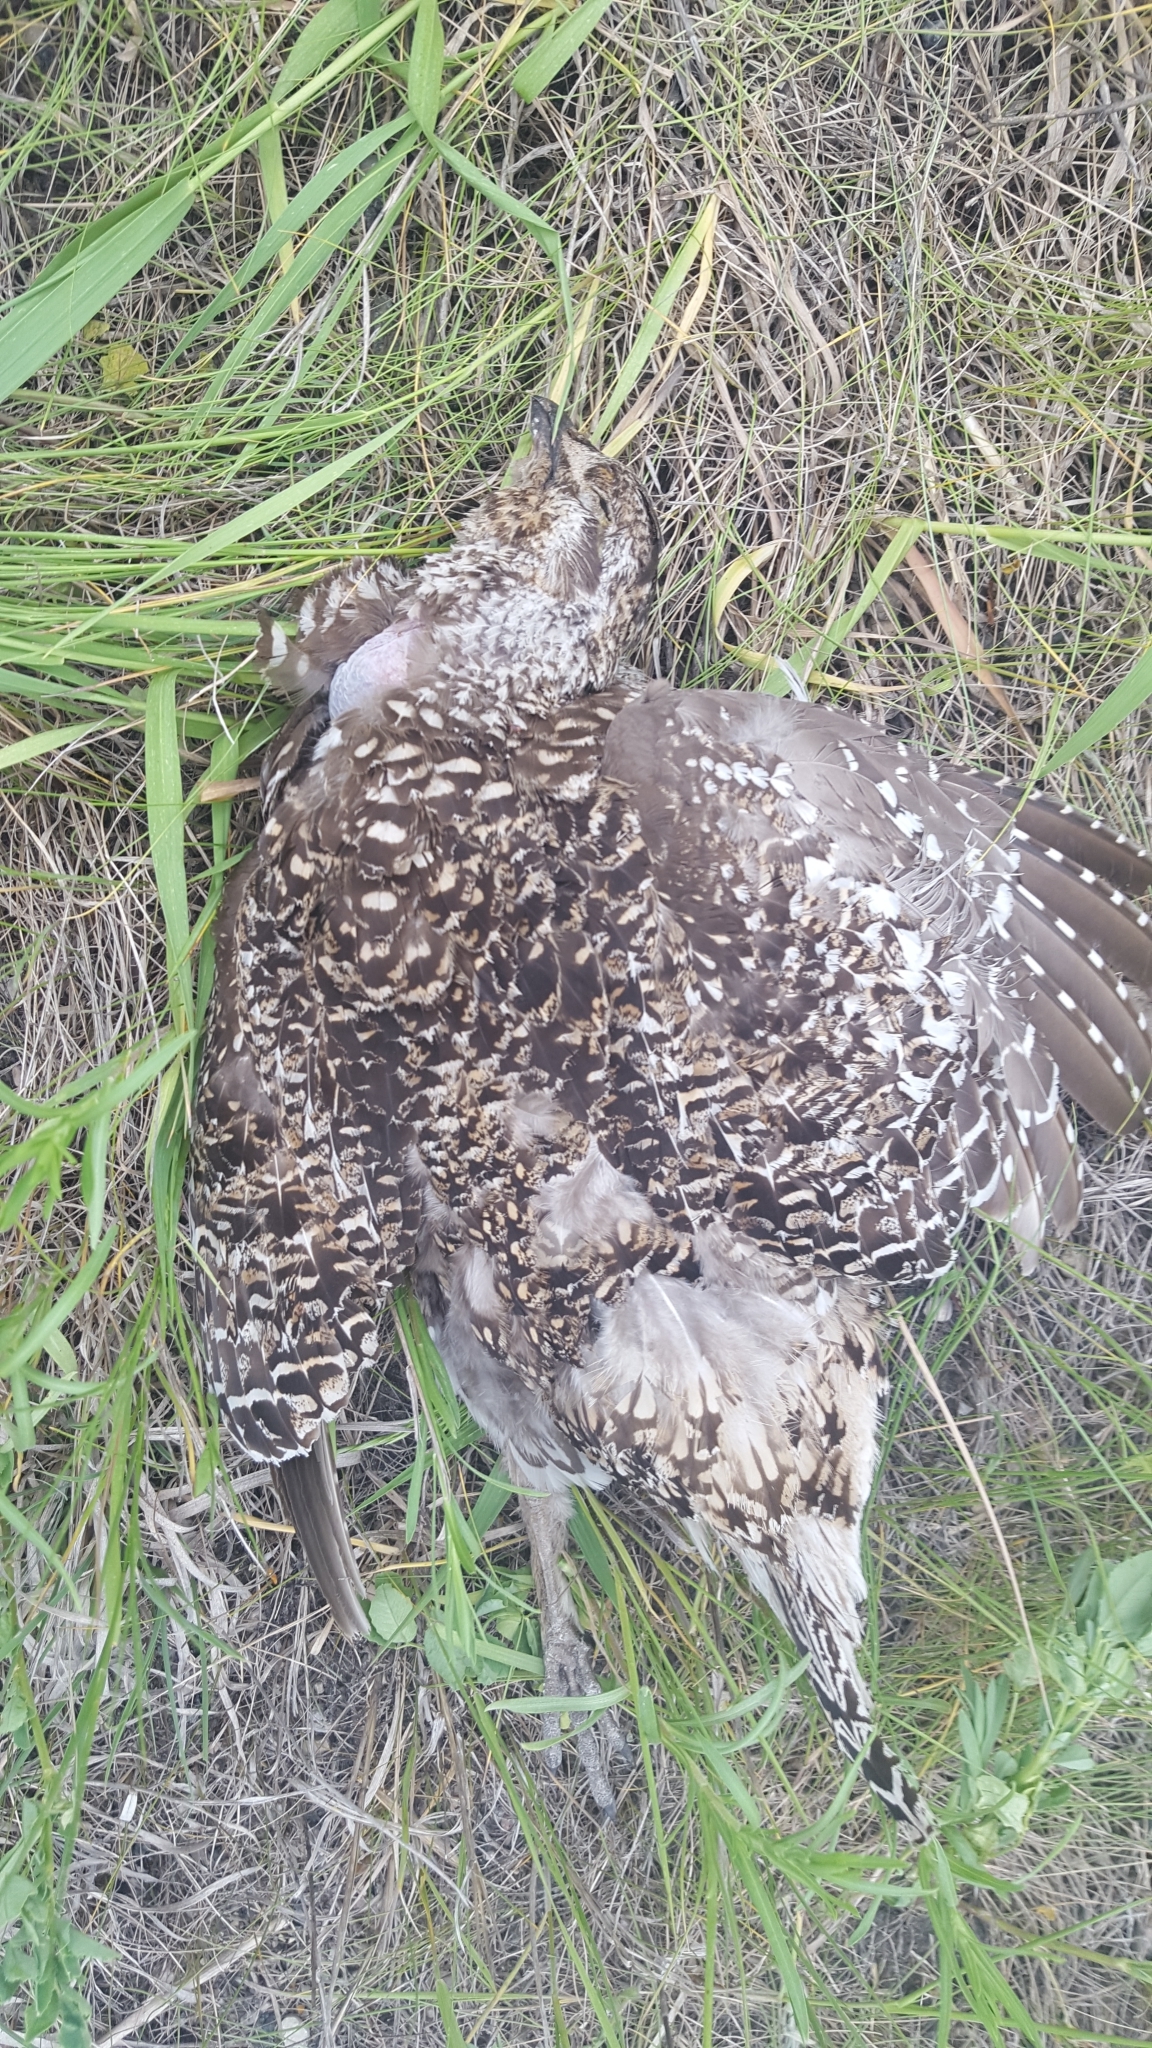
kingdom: Animalia
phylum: Chordata
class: Aves
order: Galliformes
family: Phasianidae
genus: Tympanuchus
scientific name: Tympanuchus phasianellus
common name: Sharp-tailed grouse
